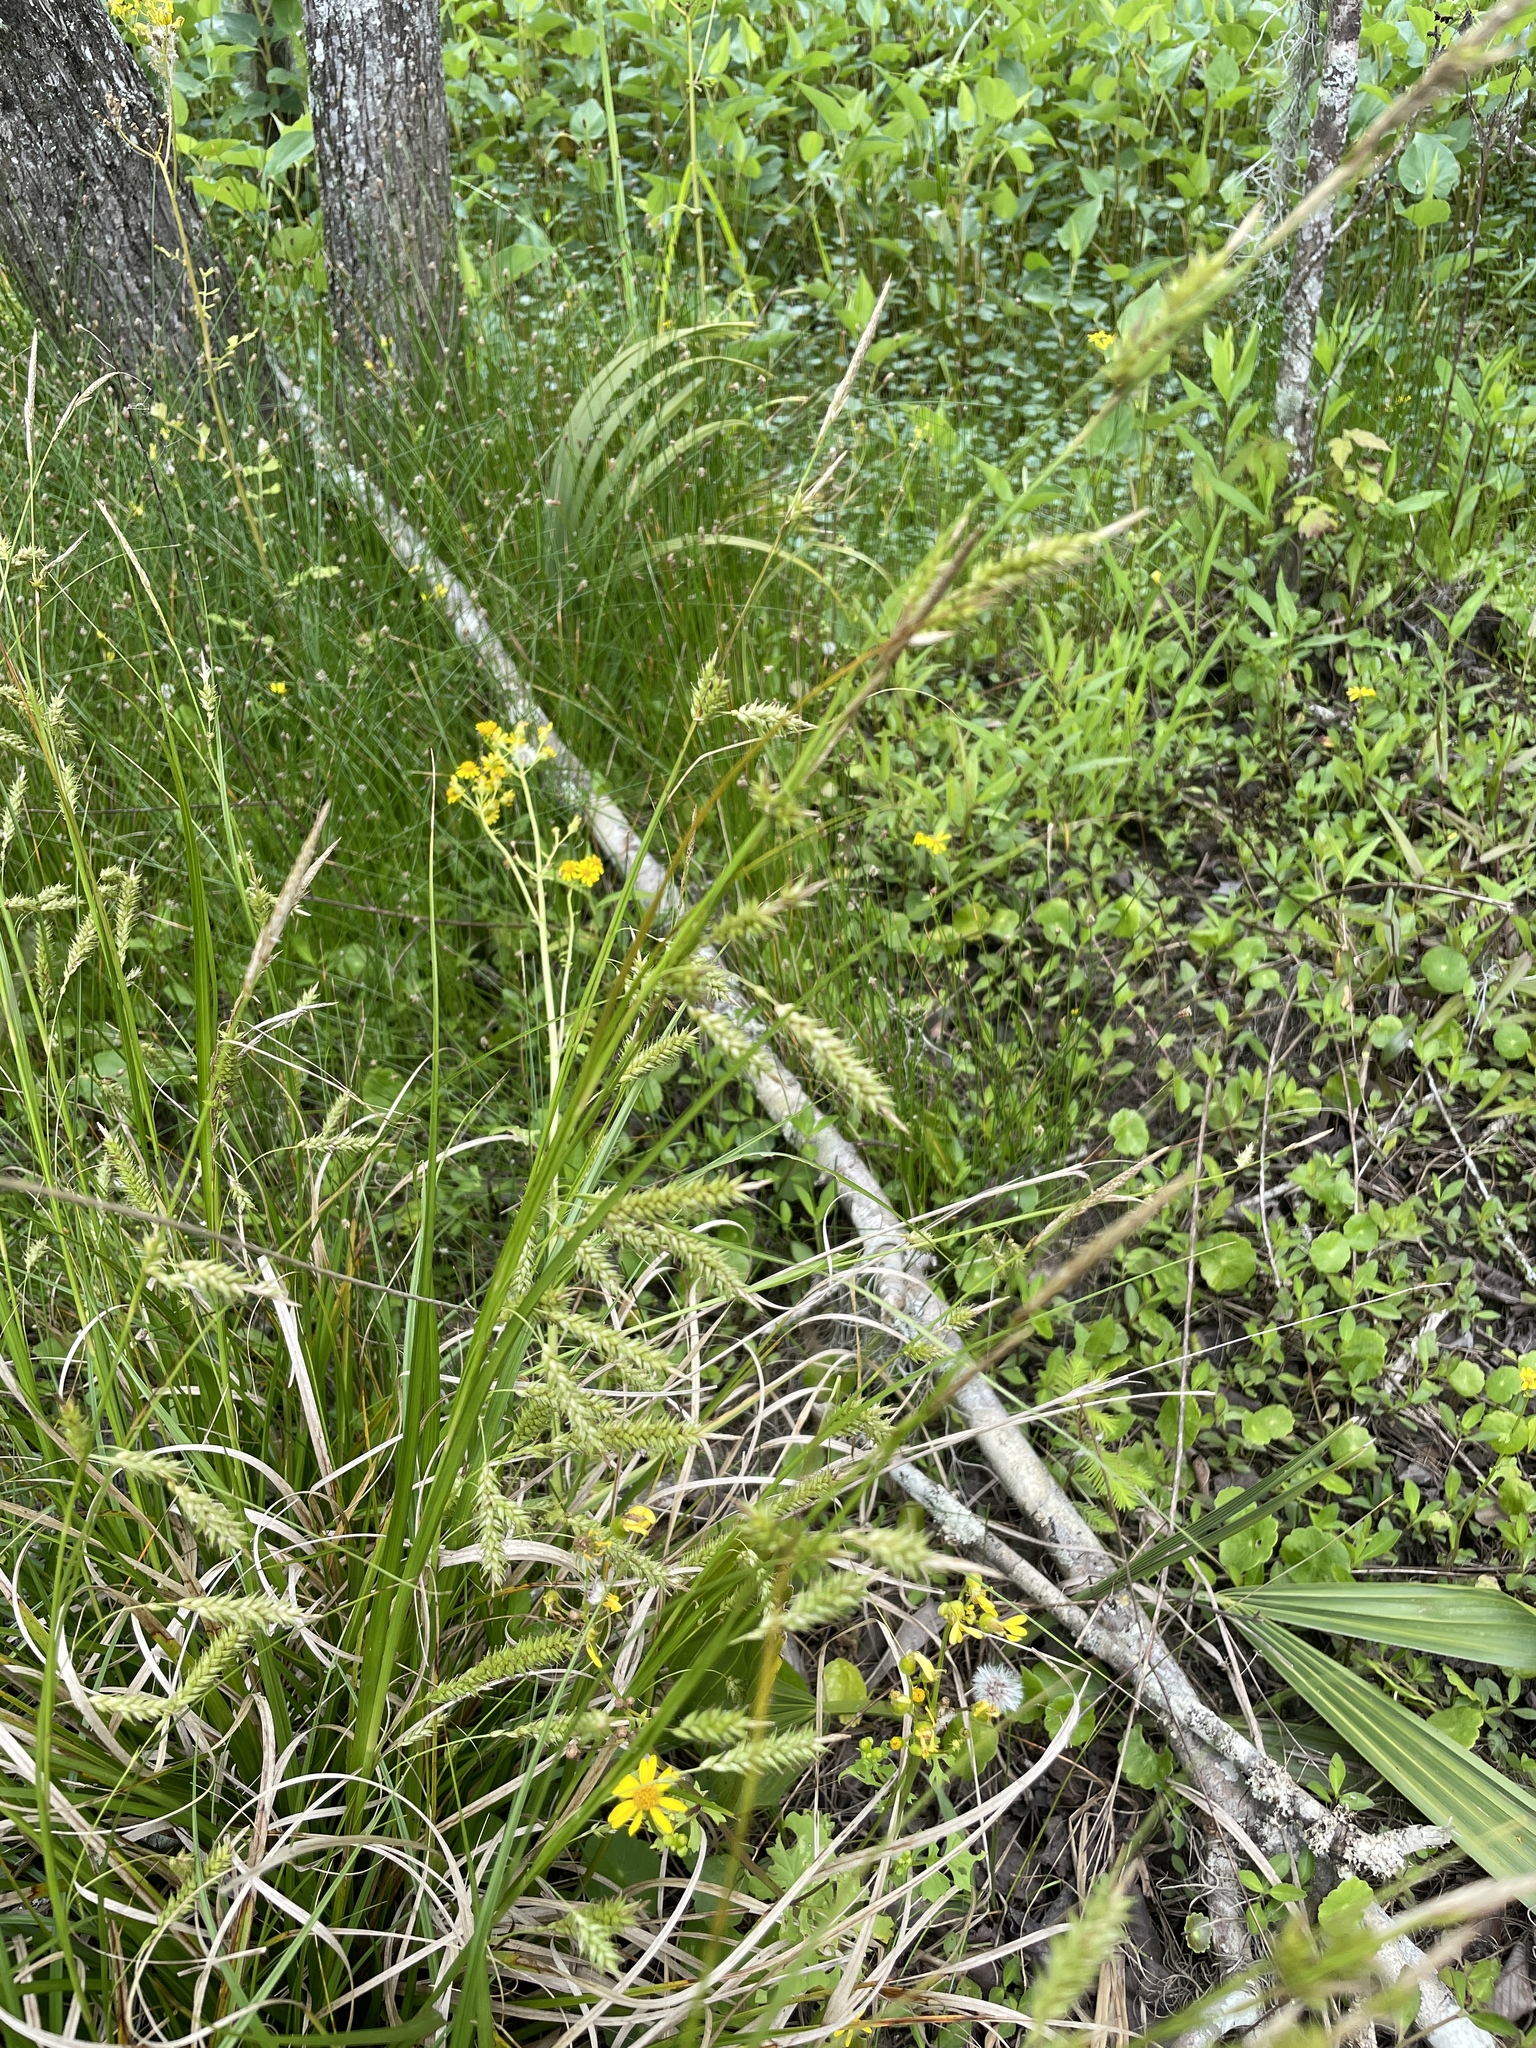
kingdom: Plantae
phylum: Tracheophyta
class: Liliopsida
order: Poales
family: Cyperaceae
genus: Carex
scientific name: Carex cherokeensis
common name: Cherokee sedge
